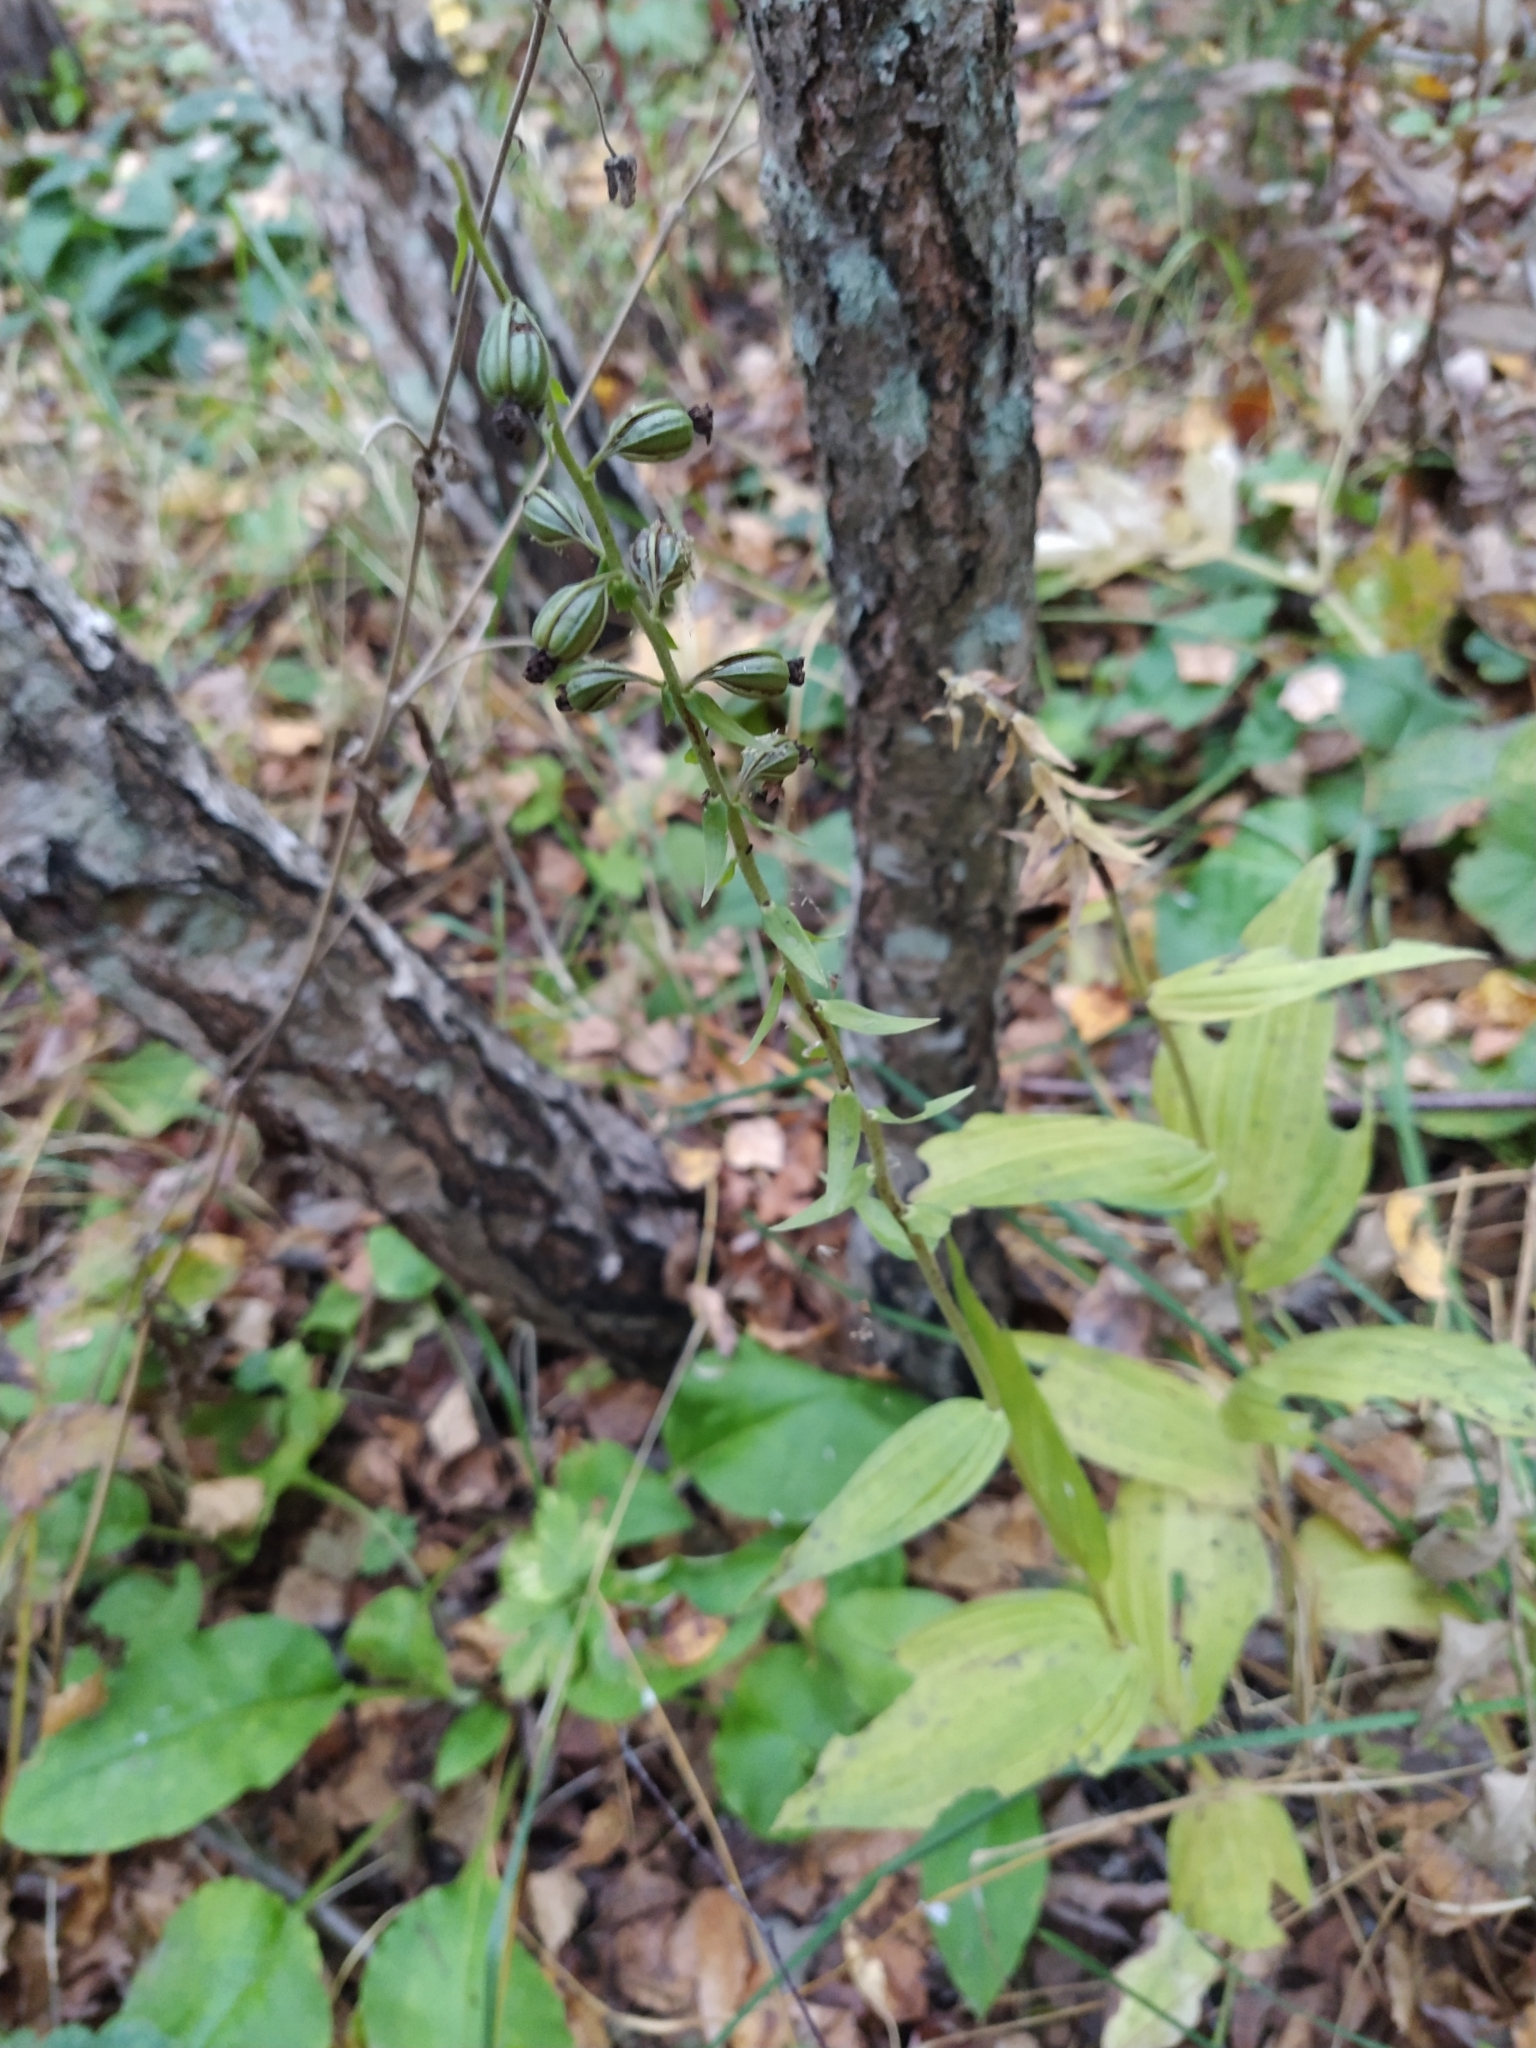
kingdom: Plantae
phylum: Tracheophyta
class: Liliopsida
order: Asparagales
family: Orchidaceae
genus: Epipactis
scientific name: Epipactis helleborine
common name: Broad-leaved helleborine
